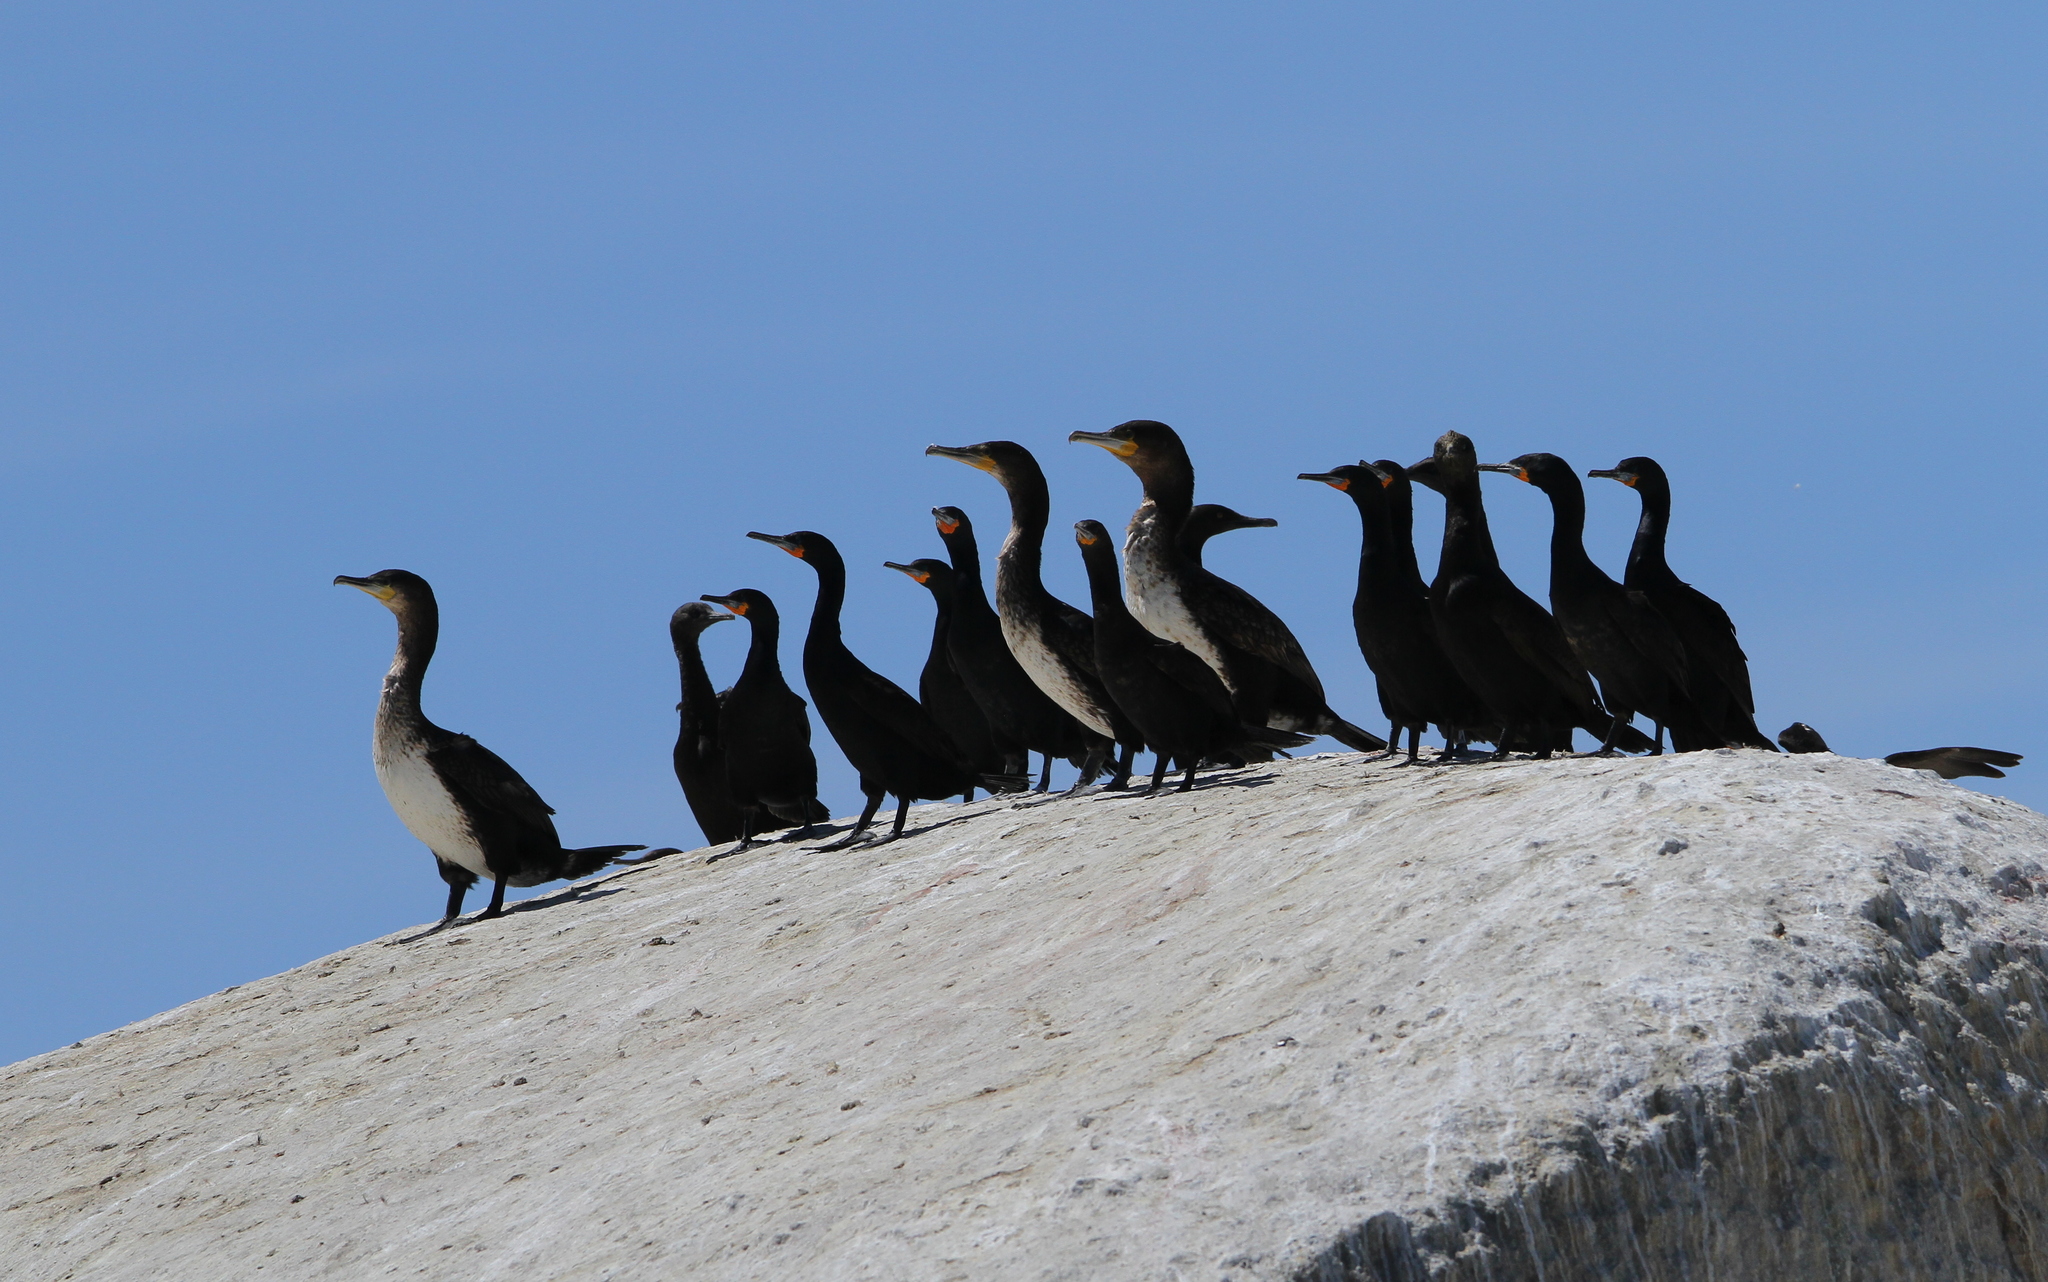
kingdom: Animalia
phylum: Chordata
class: Aves
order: Suliformes
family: Phalacrocoracidae
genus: Phalacrocorax
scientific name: Phalacrocorax capensis
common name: Cape cormorant
